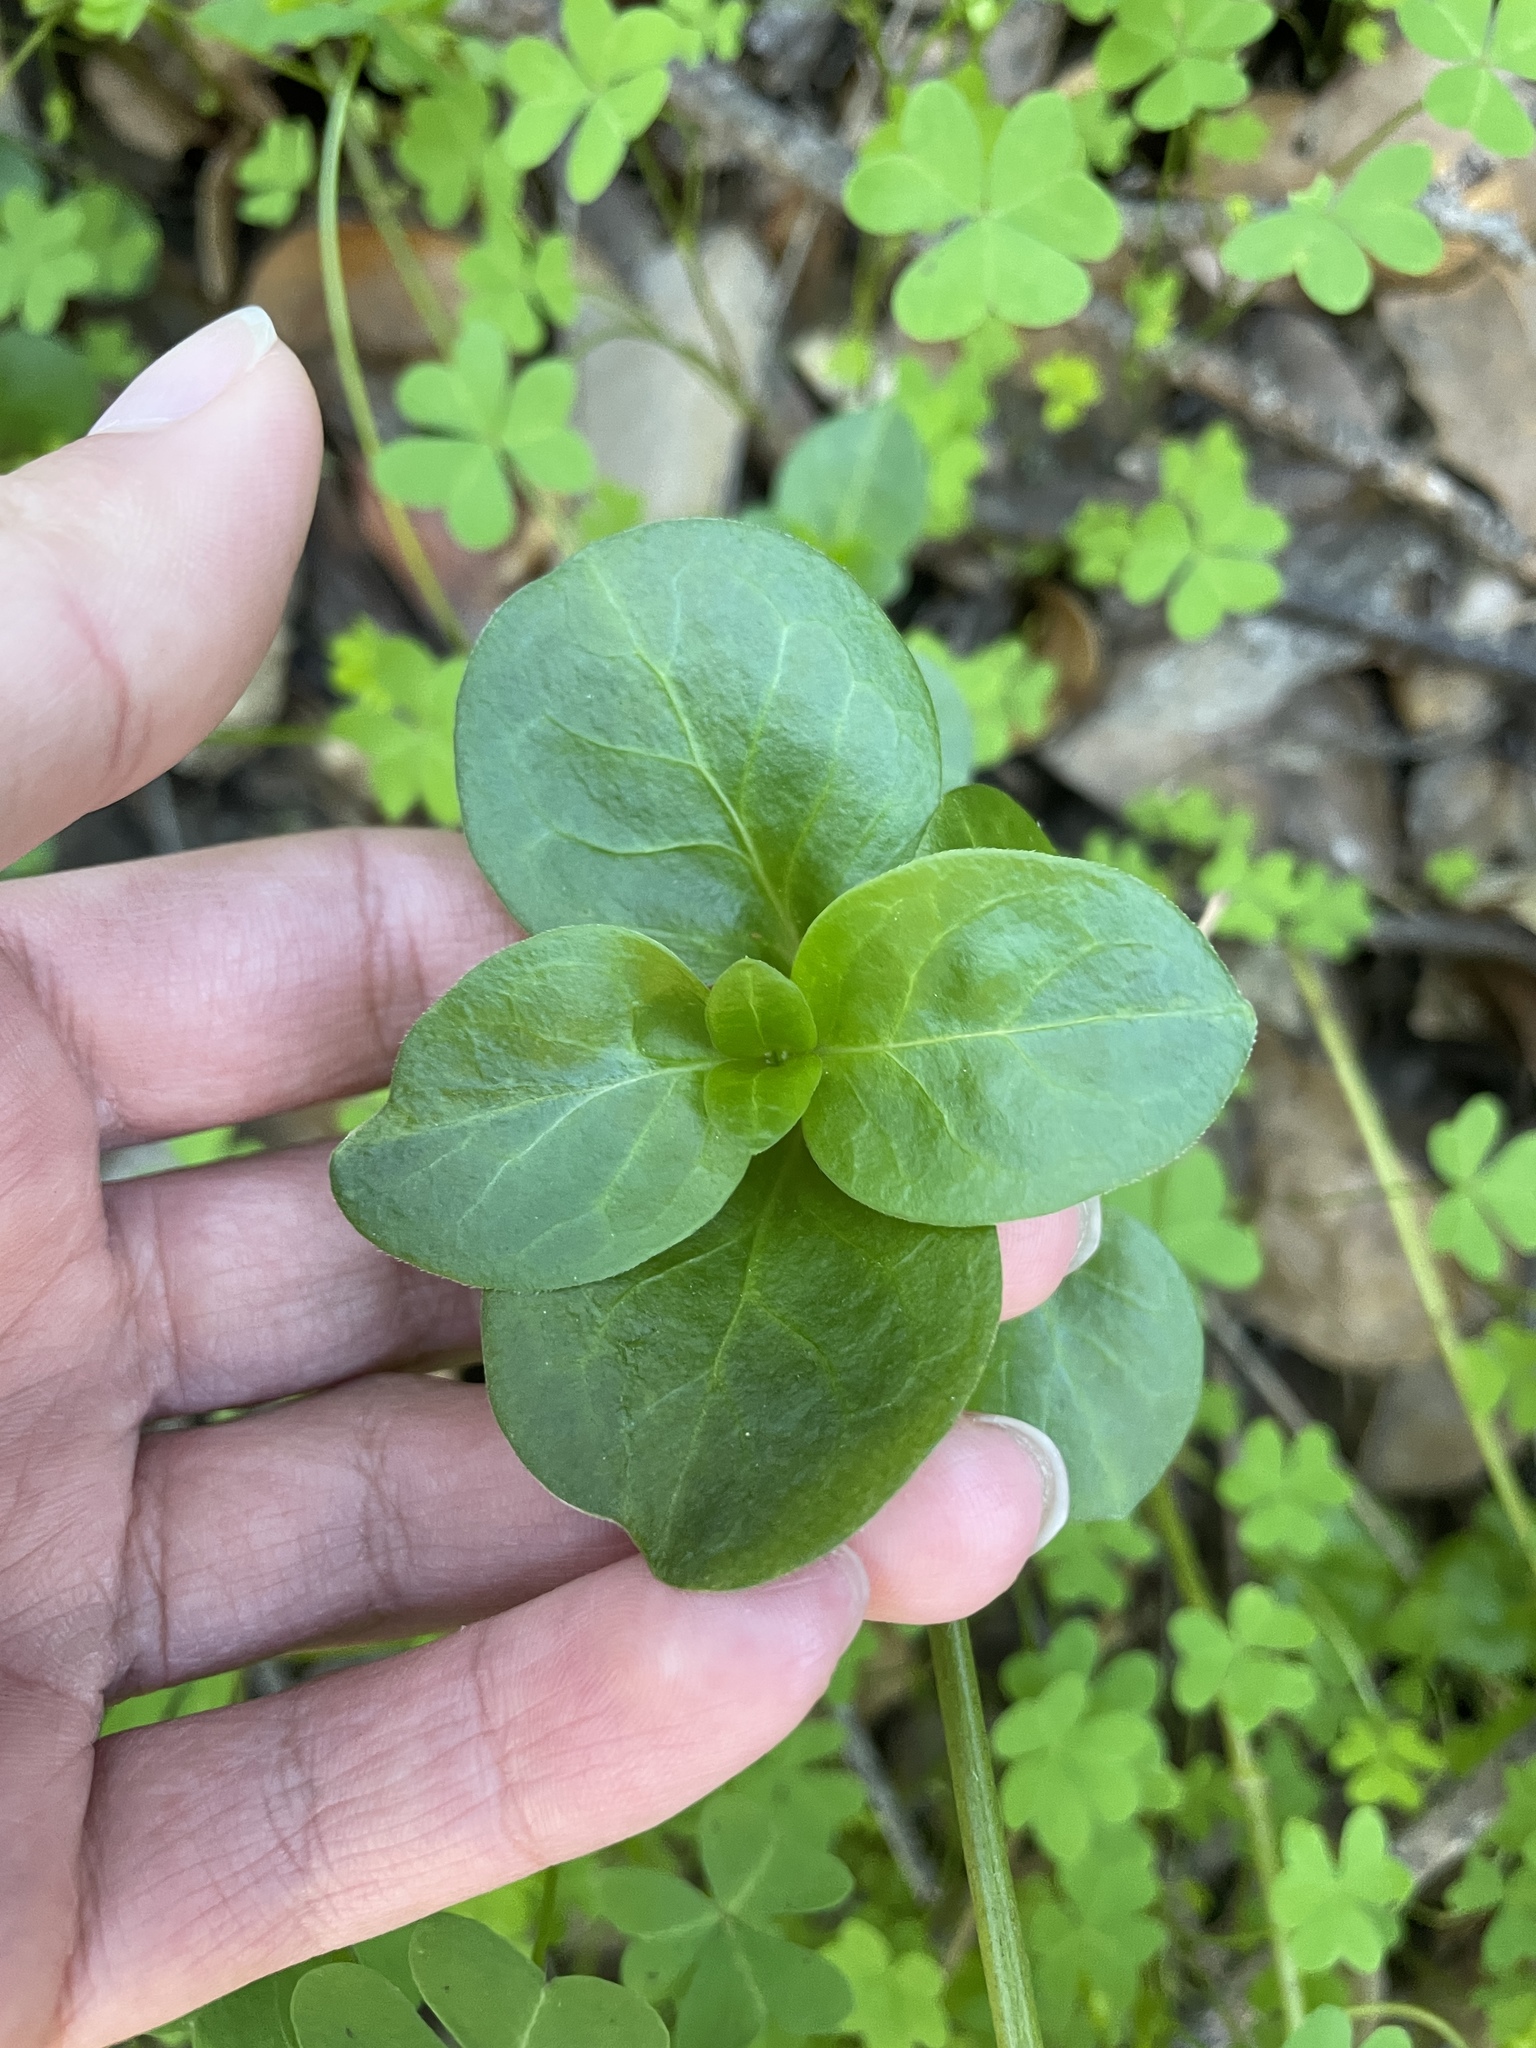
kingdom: Plantae
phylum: Tracheophyta
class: Magnoliopsida
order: Gentianales
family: Apocynaceae
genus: Vinca
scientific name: Vinca major
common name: Greater periwinkle
